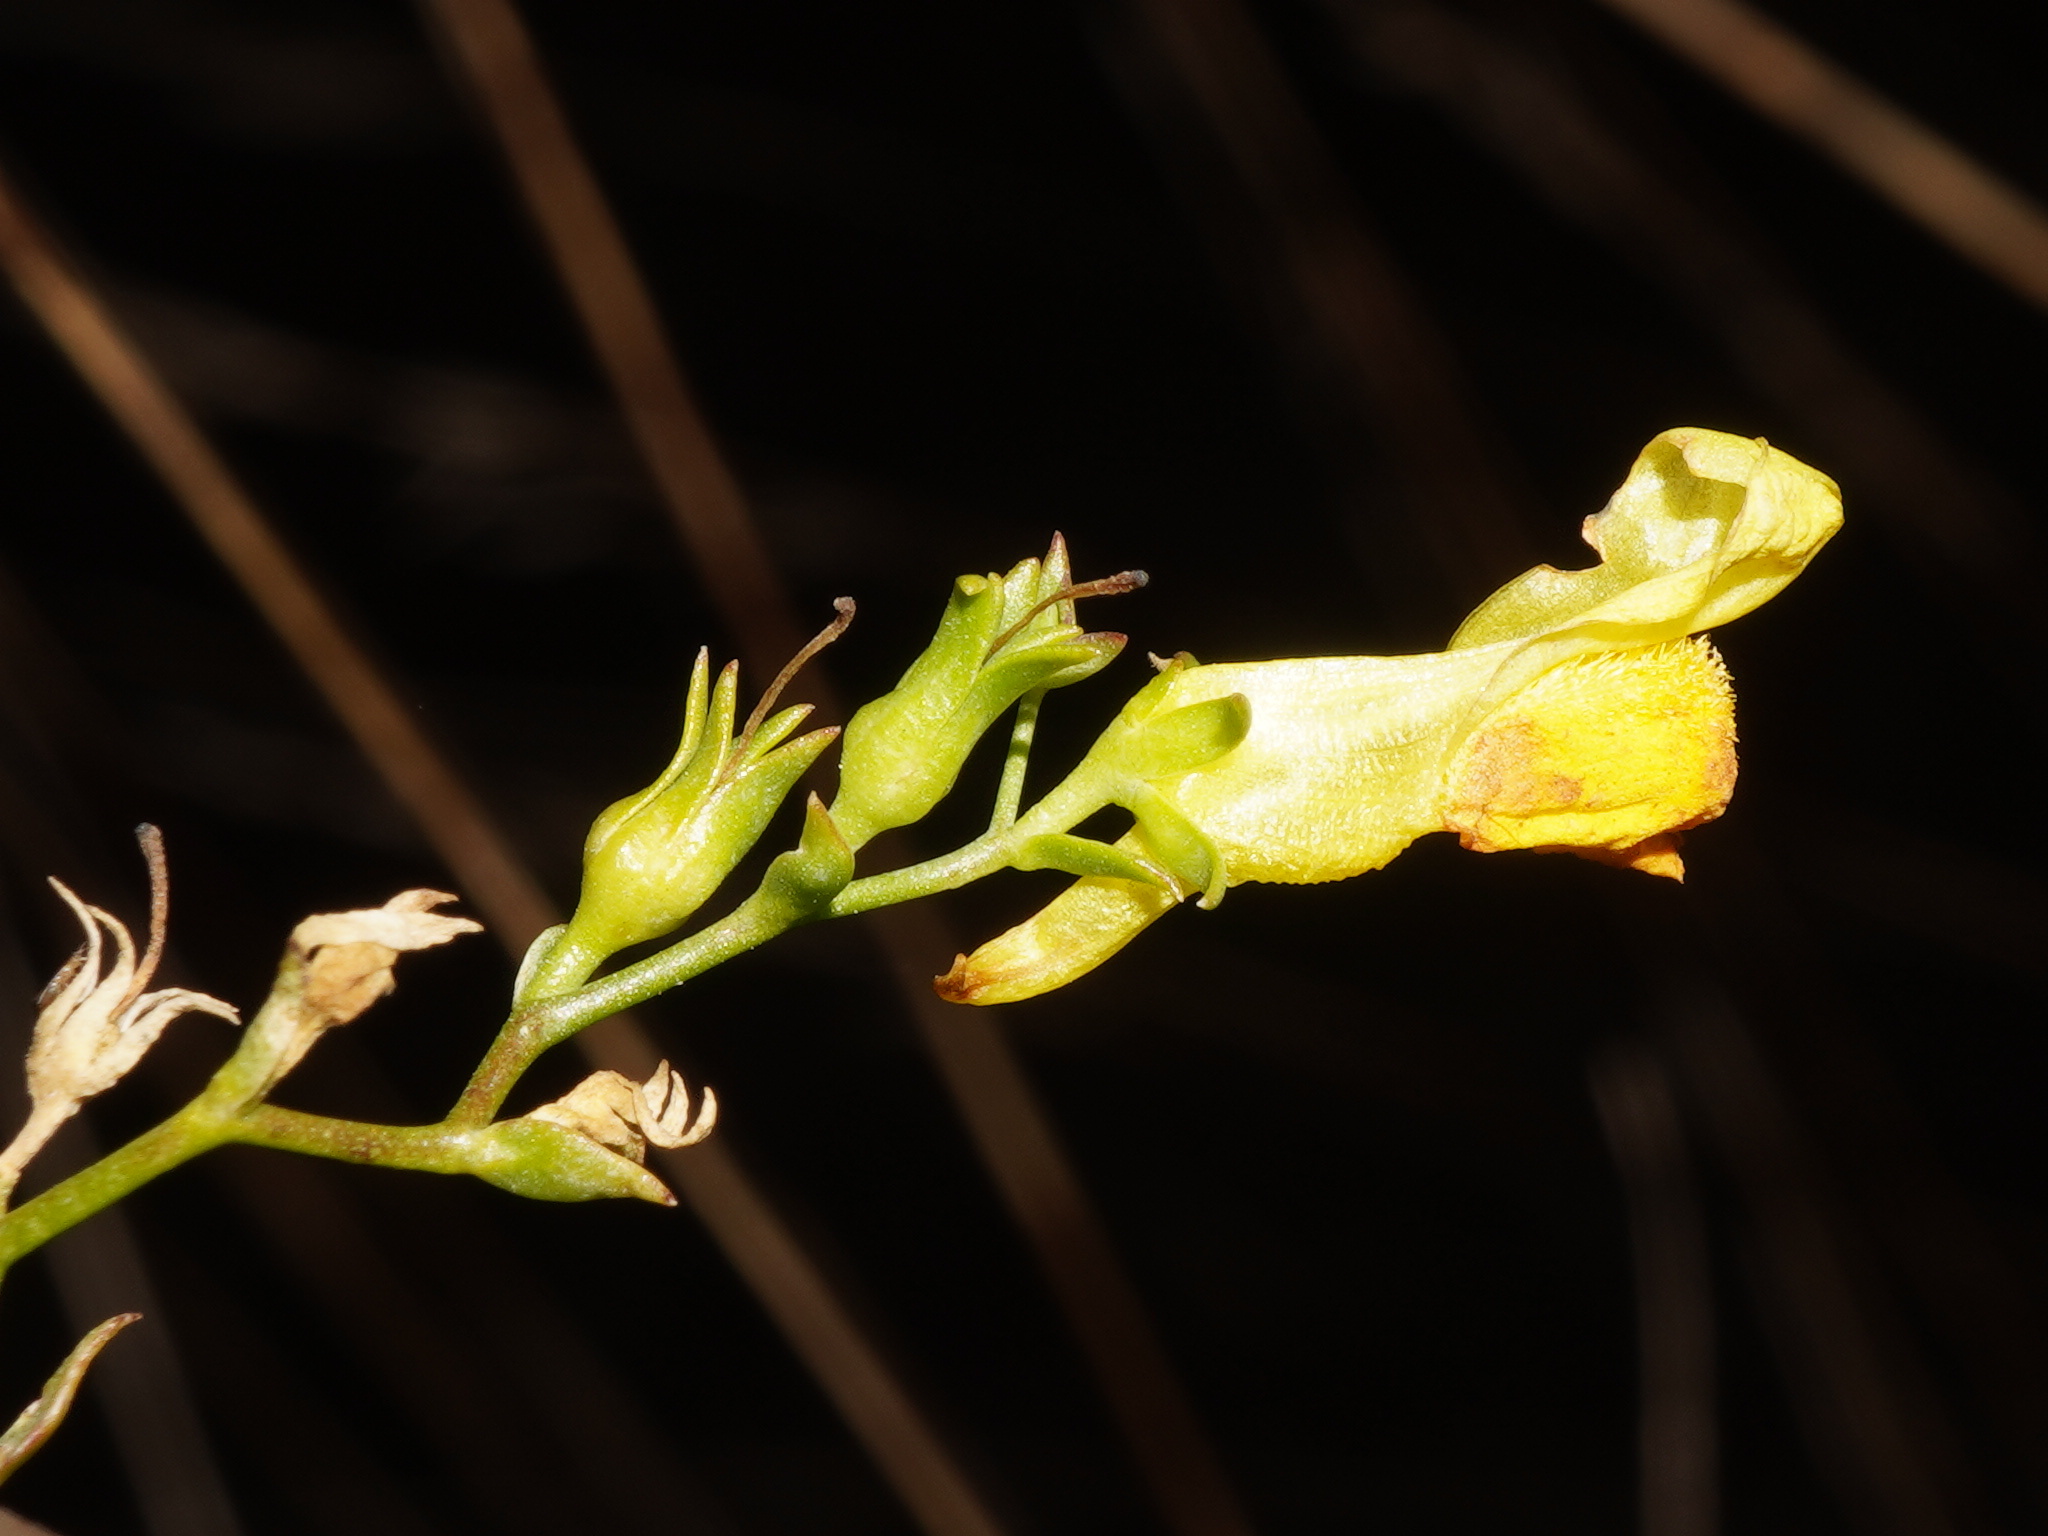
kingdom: Plantae
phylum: Tracheophyta
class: Magnoliopsida
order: Lamiales
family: Plantaginaceae
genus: Linaria
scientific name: Linaria genistifolia
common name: Broomleaf toadflax
